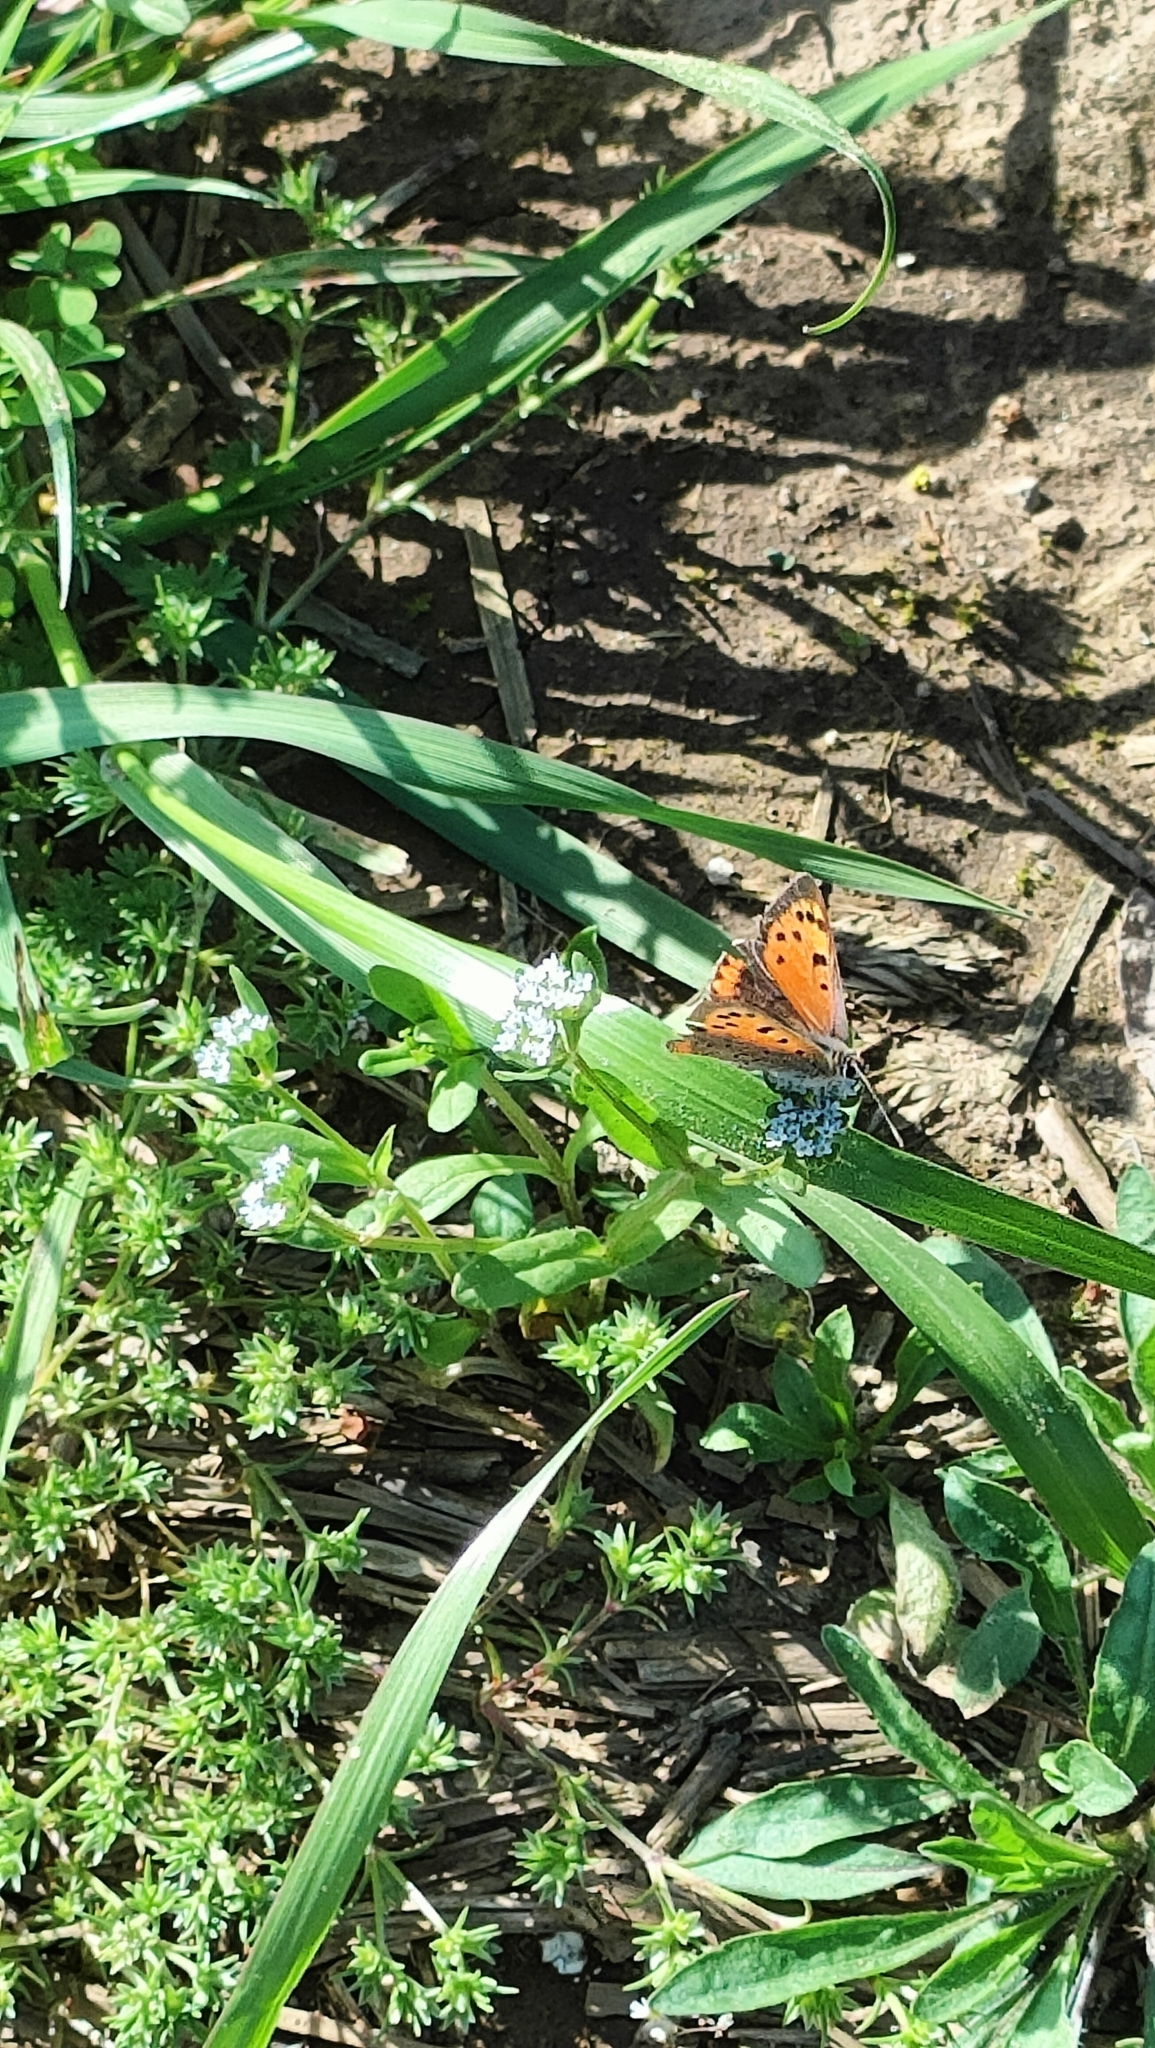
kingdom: Animalia
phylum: Arthropoda
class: Insecta
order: Lepidoptera
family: Lycaenidae
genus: Lycaena
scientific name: Lycaena phlaeas
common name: Small copper
